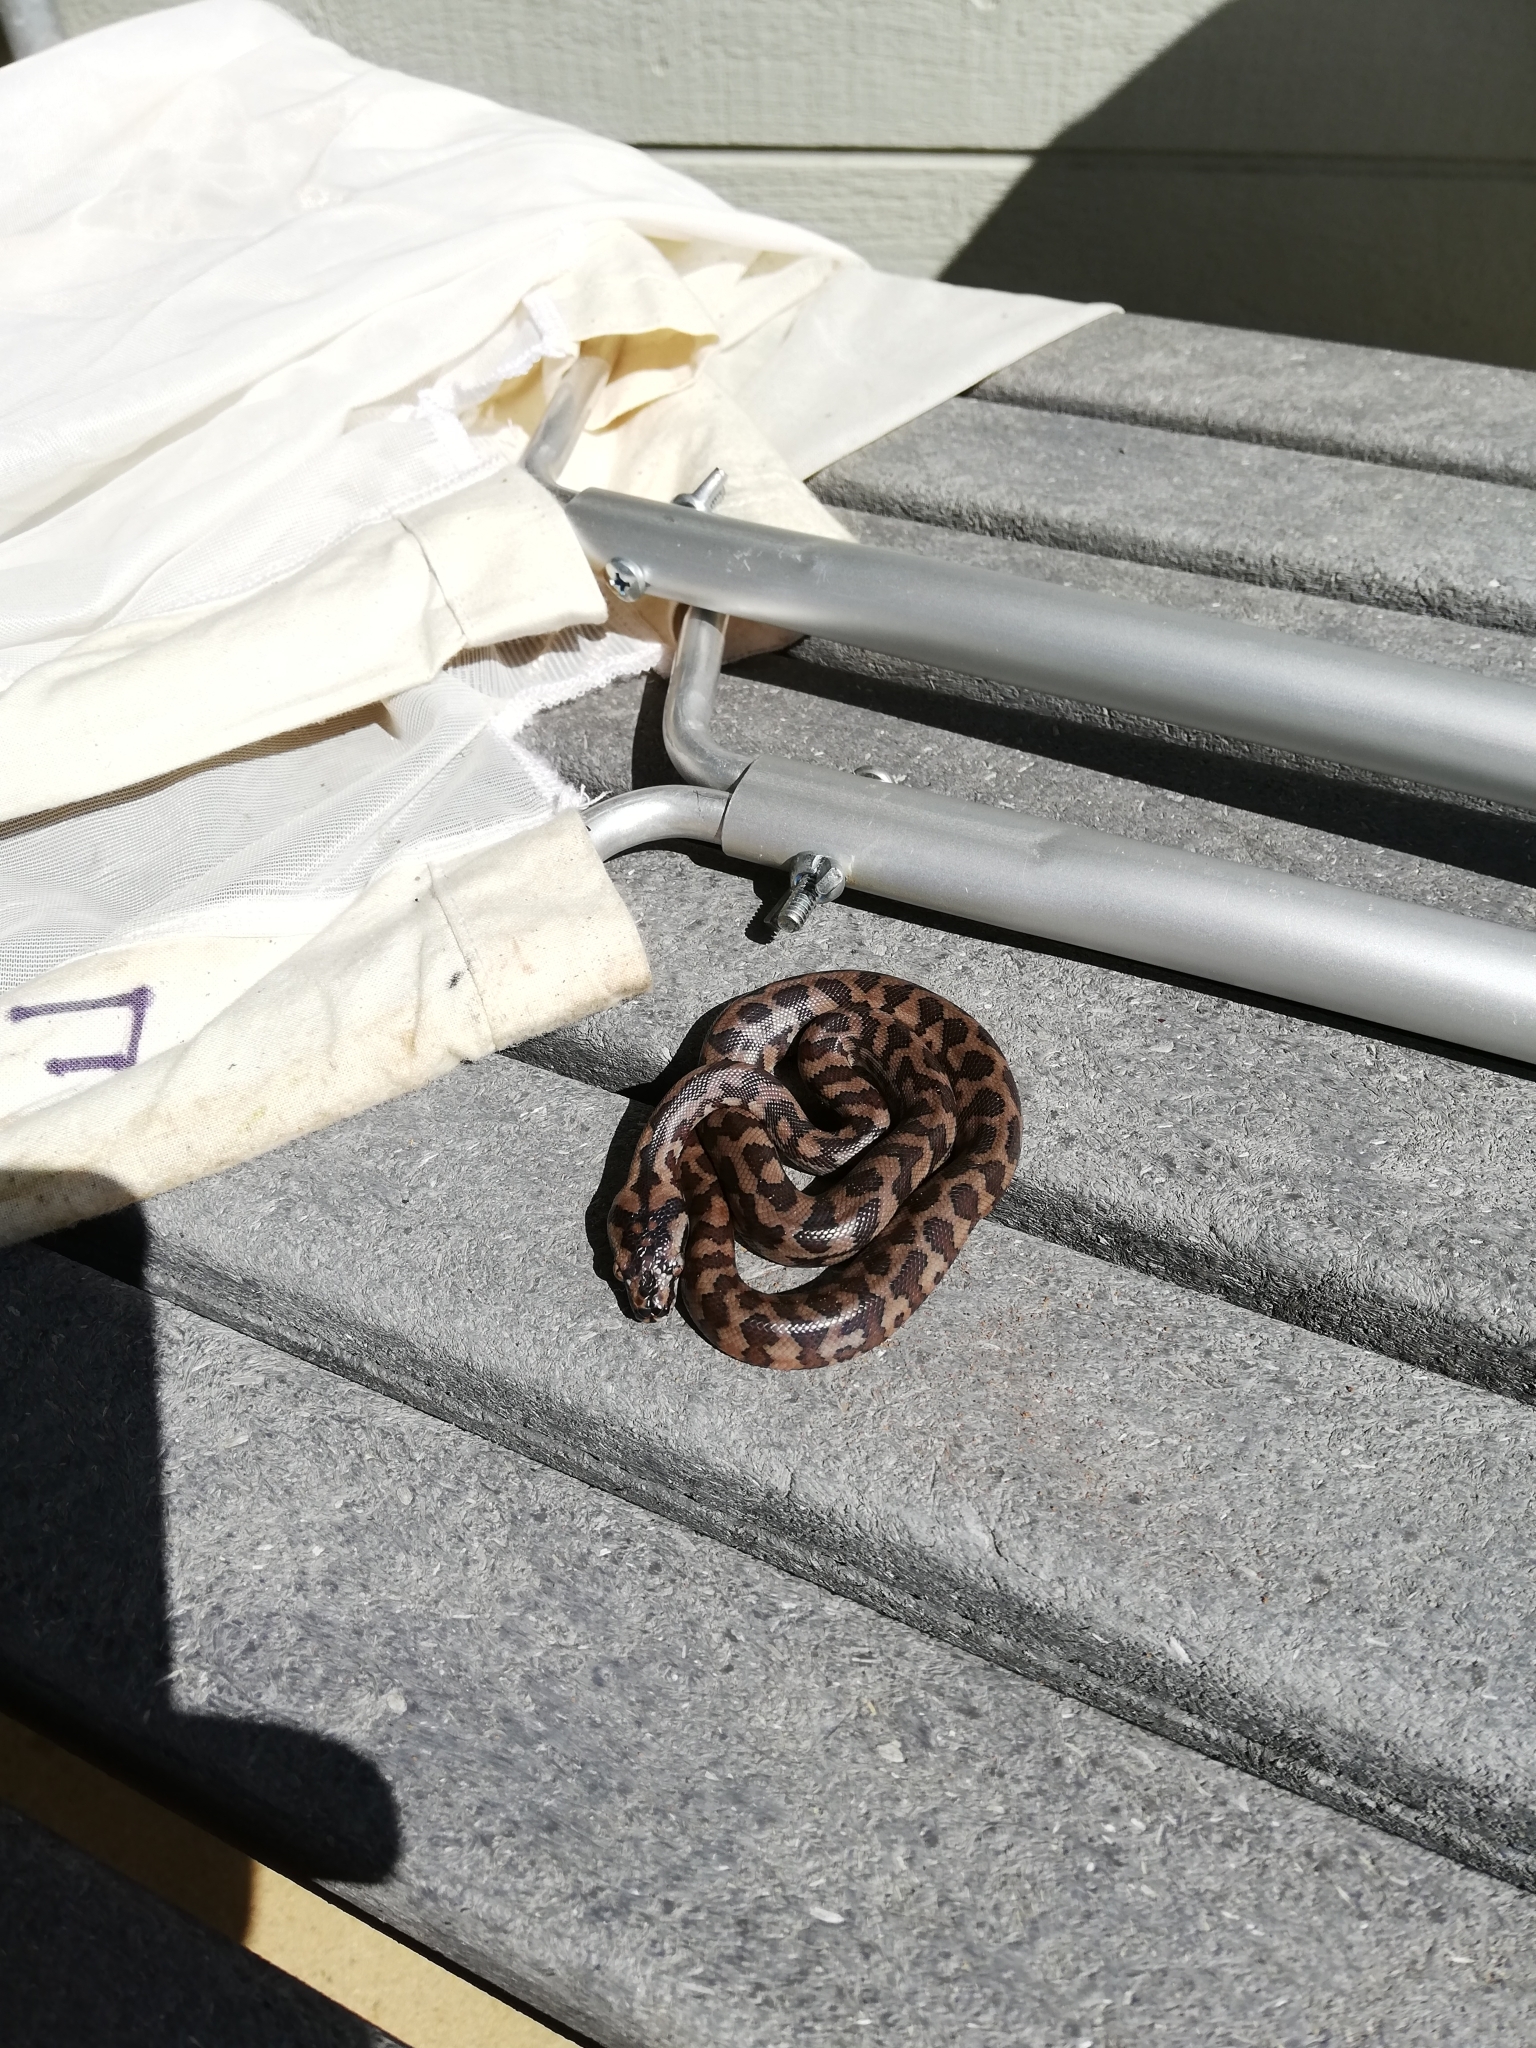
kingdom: Animalia
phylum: Chordata
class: Squamata
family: Pythonidae
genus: Morelia
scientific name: Morelia spilota
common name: Carpet python
